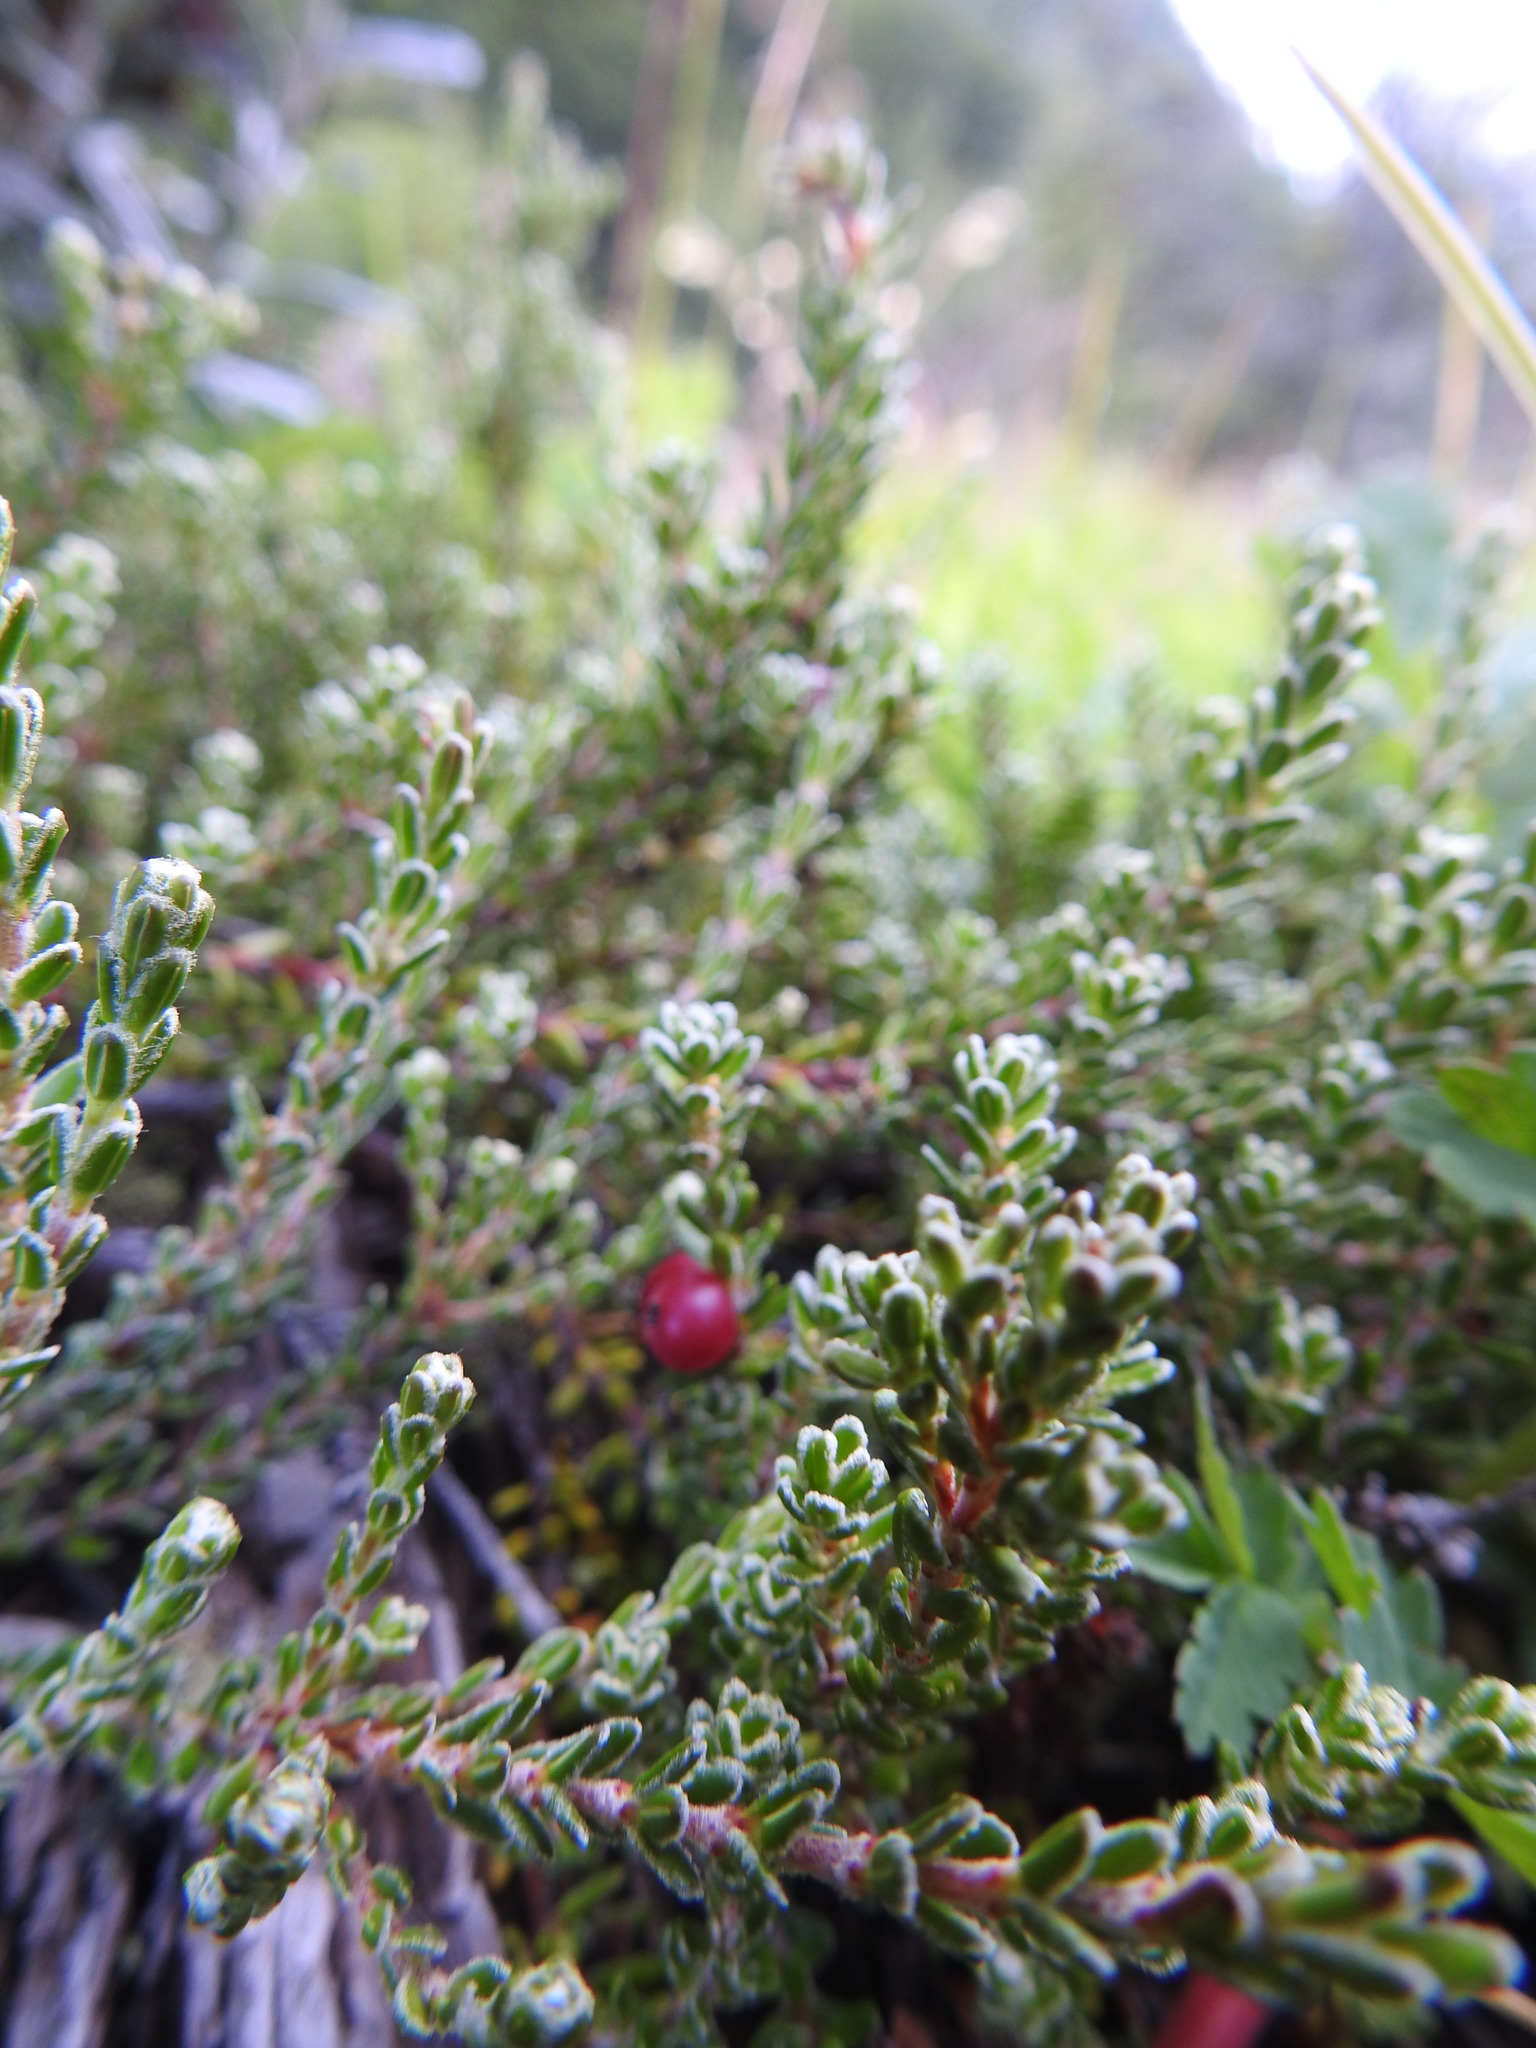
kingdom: Plantae
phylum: Tracheophyta
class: Magnoliopsida
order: Ericales
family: Ericaceae
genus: Empetrum
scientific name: Empetrum rubrum
